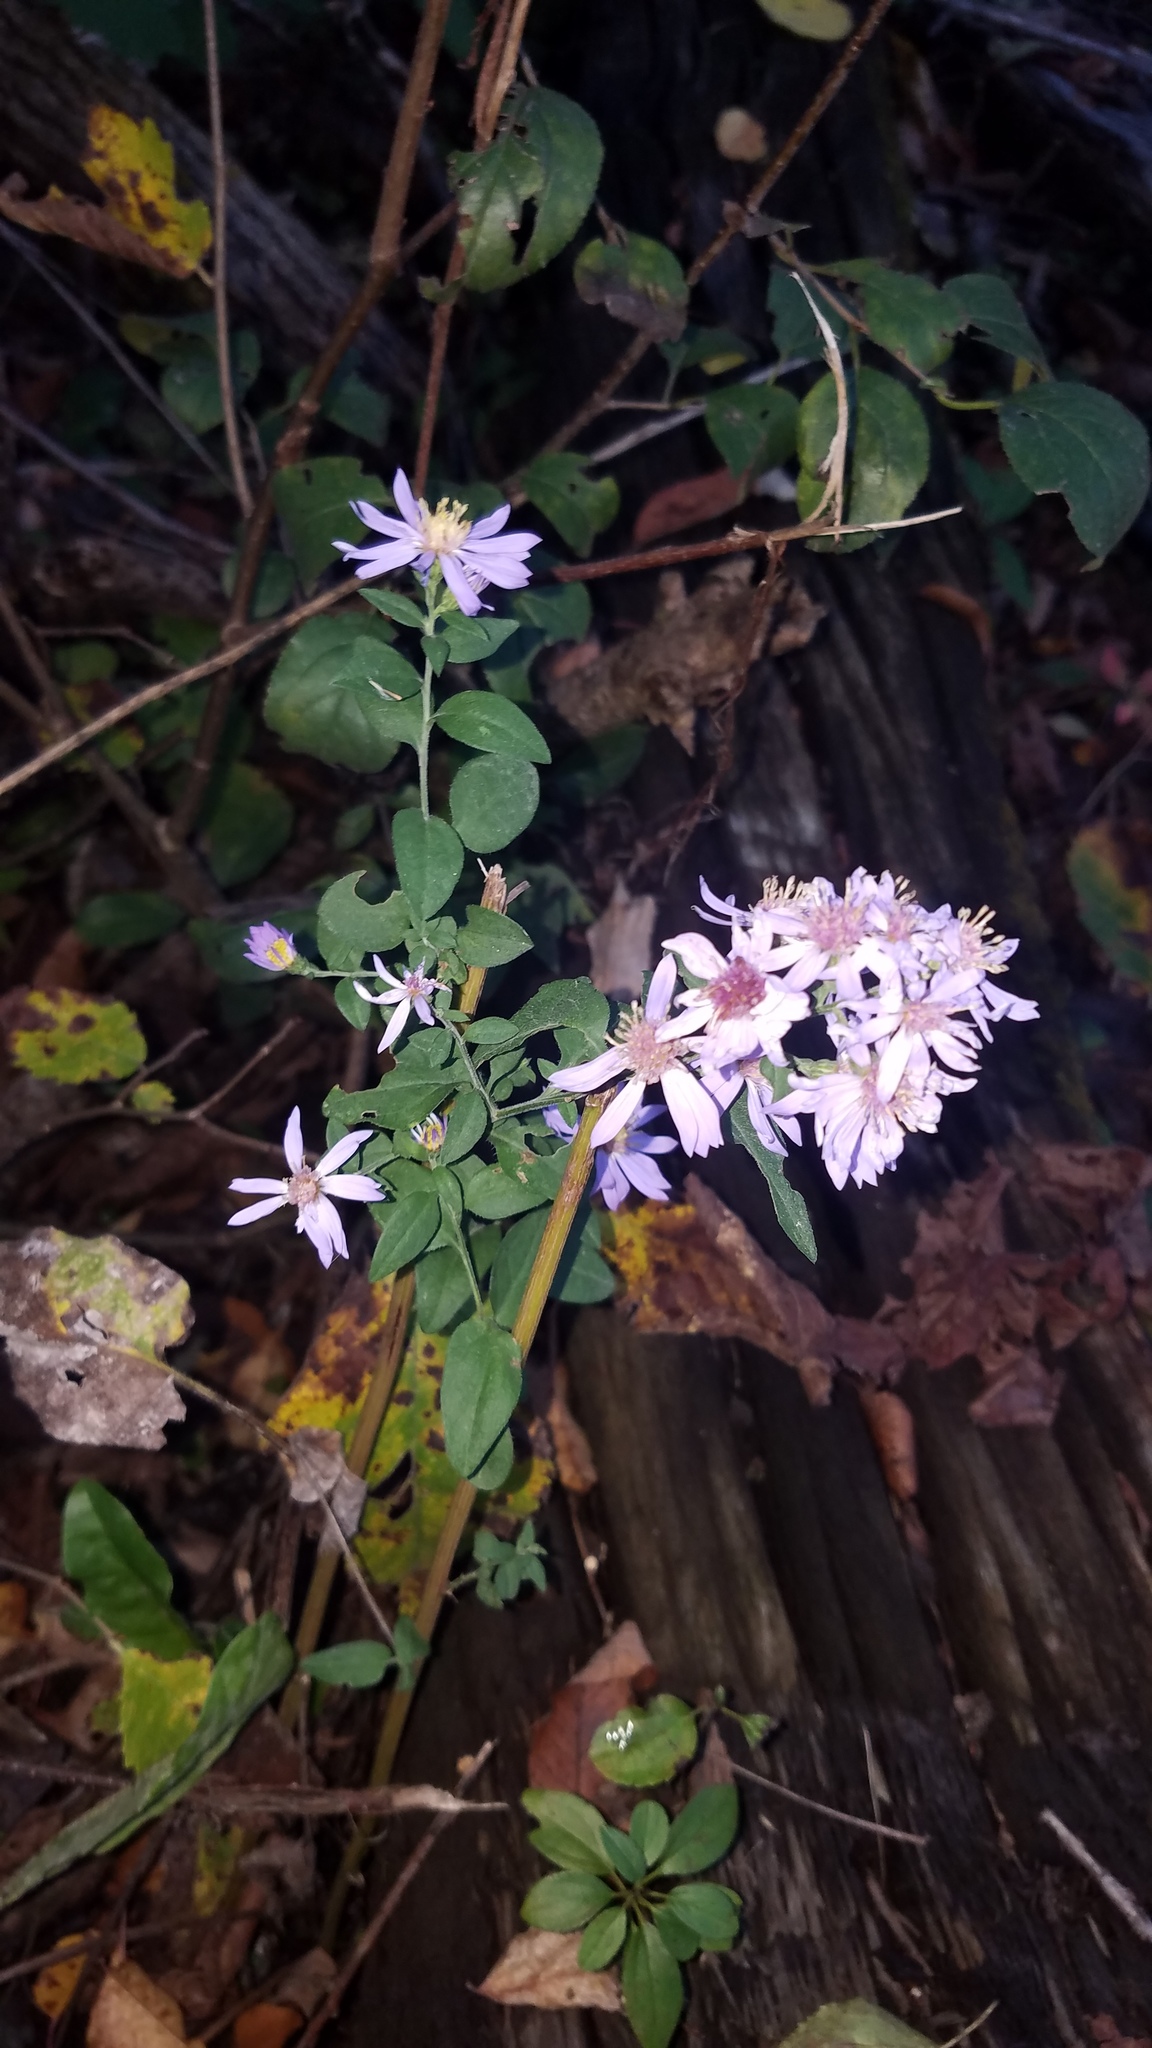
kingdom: Plantae
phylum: Tracheophyta
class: Magnoliopsida
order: Asterales
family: Asteraceae
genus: Symphyotrichum
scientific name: Symphyotrichum shortii
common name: Short's aster
